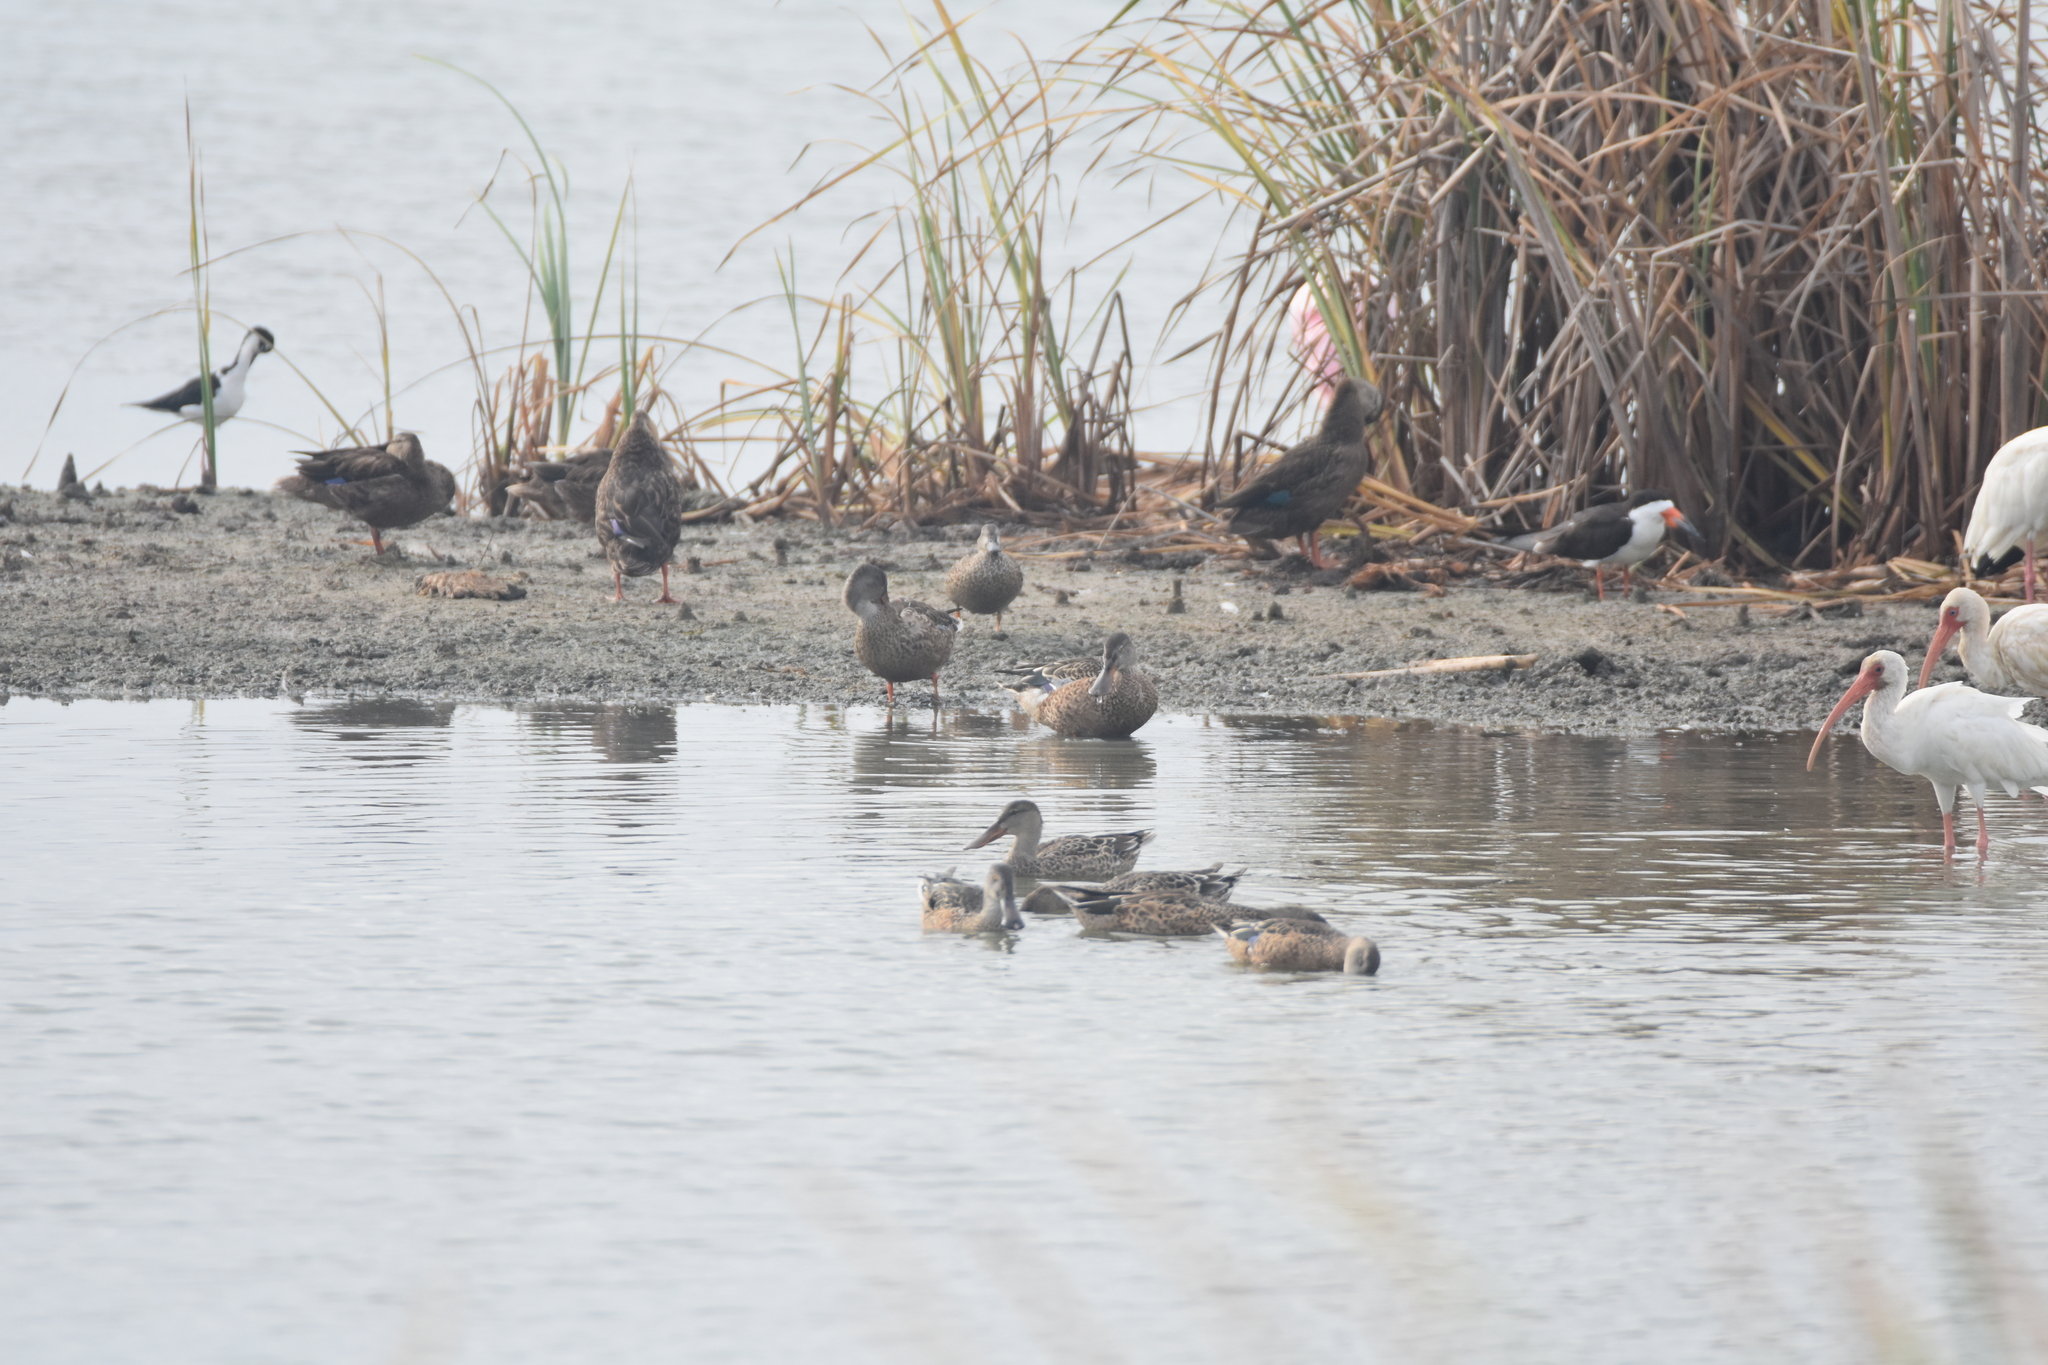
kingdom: Animalia
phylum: Chordata
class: Aves
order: Charadriiformes
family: Recurvirostridae
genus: Himantopus
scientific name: Himantopus mexicanus
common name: Black-necked stilt
